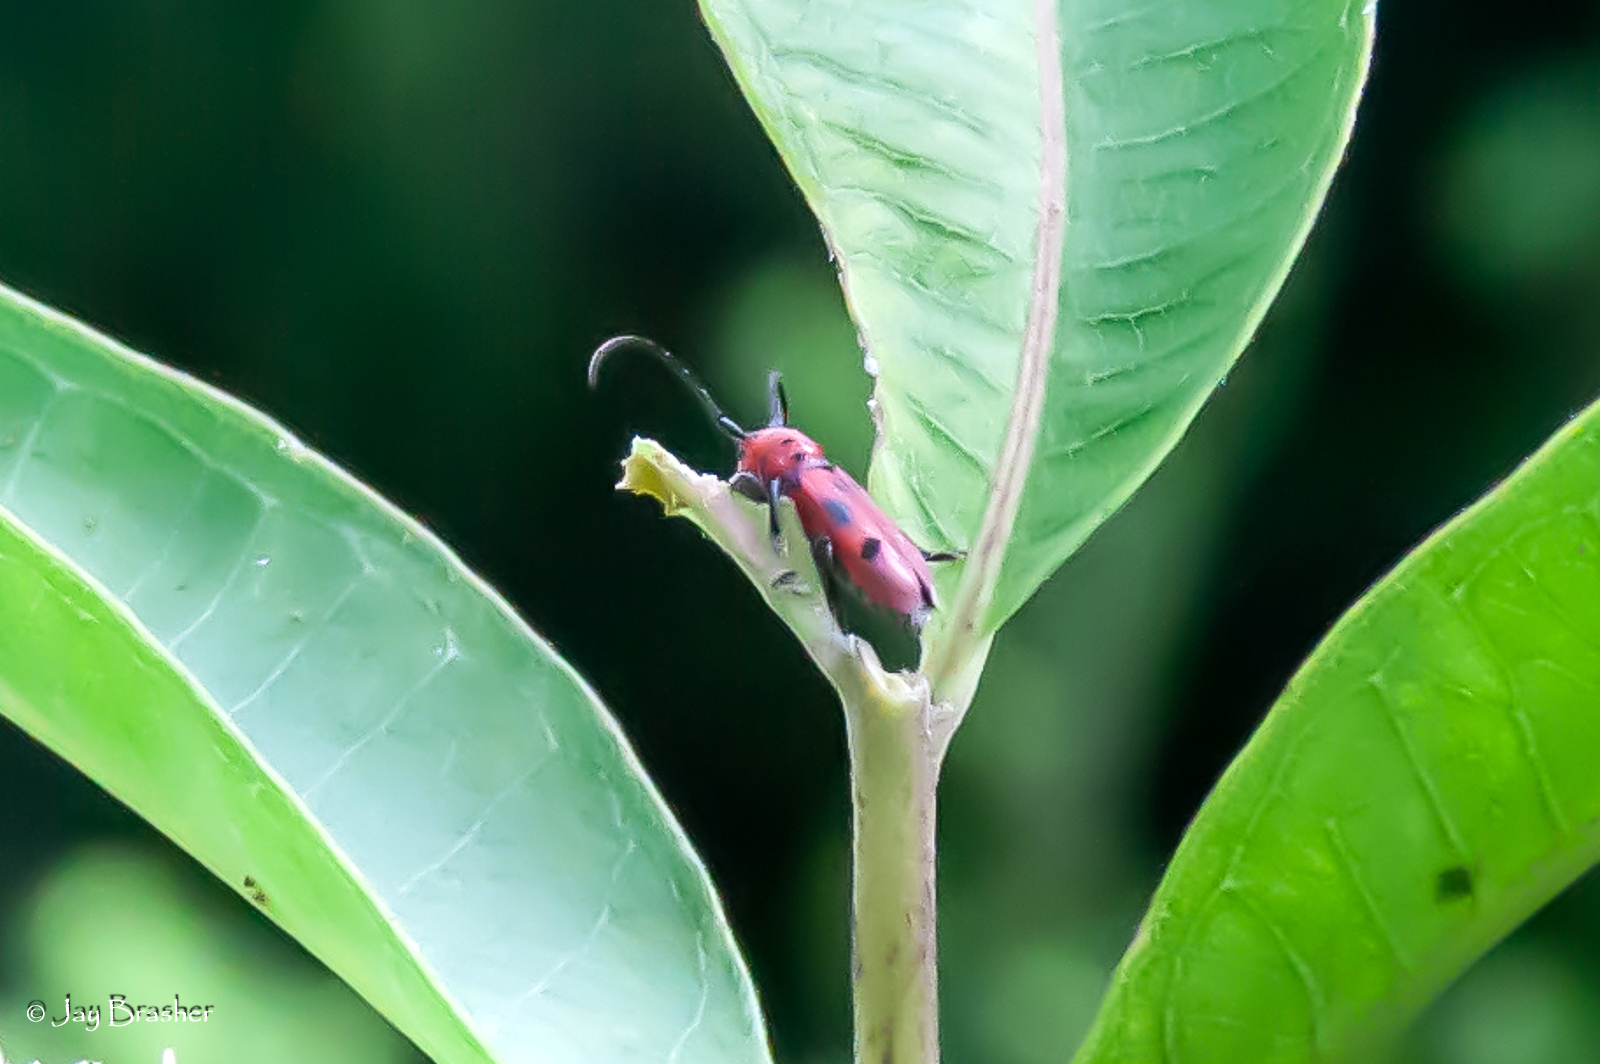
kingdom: Animalia
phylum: Arthropoda
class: Insecta
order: Coleoptera
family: Cerambycidae
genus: Tetraopes
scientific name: Tetraopes tetrophthalmus
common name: Red milkweed beetle
